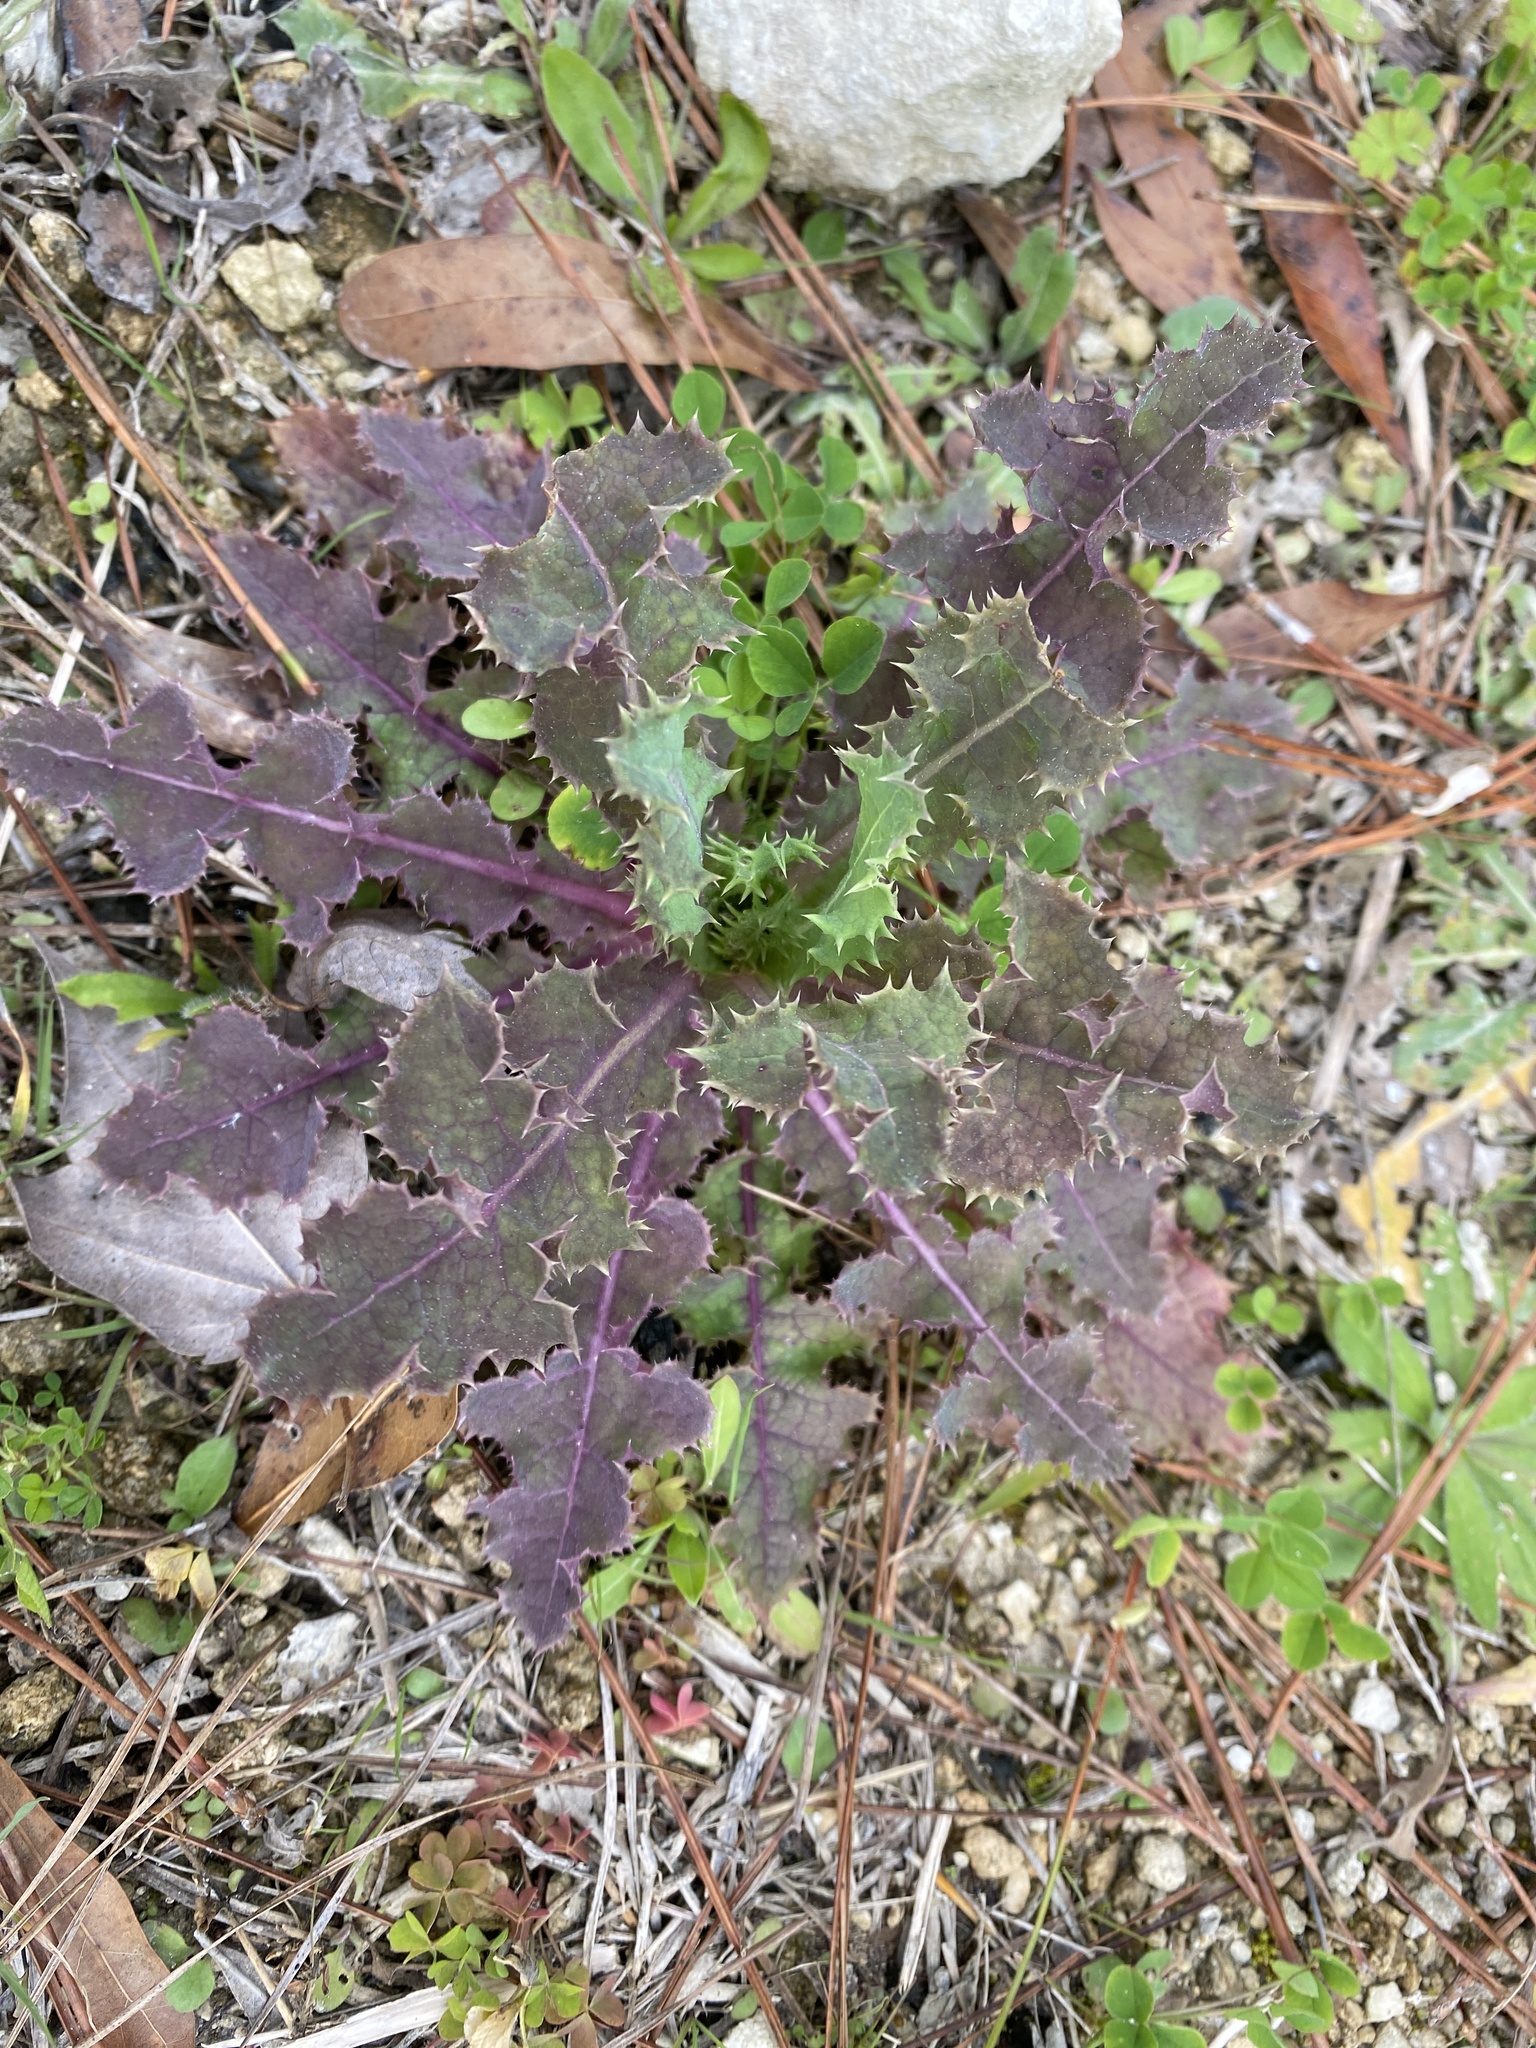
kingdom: Plantae
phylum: Tracheophyta
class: Magnoliopsida
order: Asterales
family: Asteraceae
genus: Sonchus
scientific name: Sonchus asper
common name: Prickly sow-thistle
